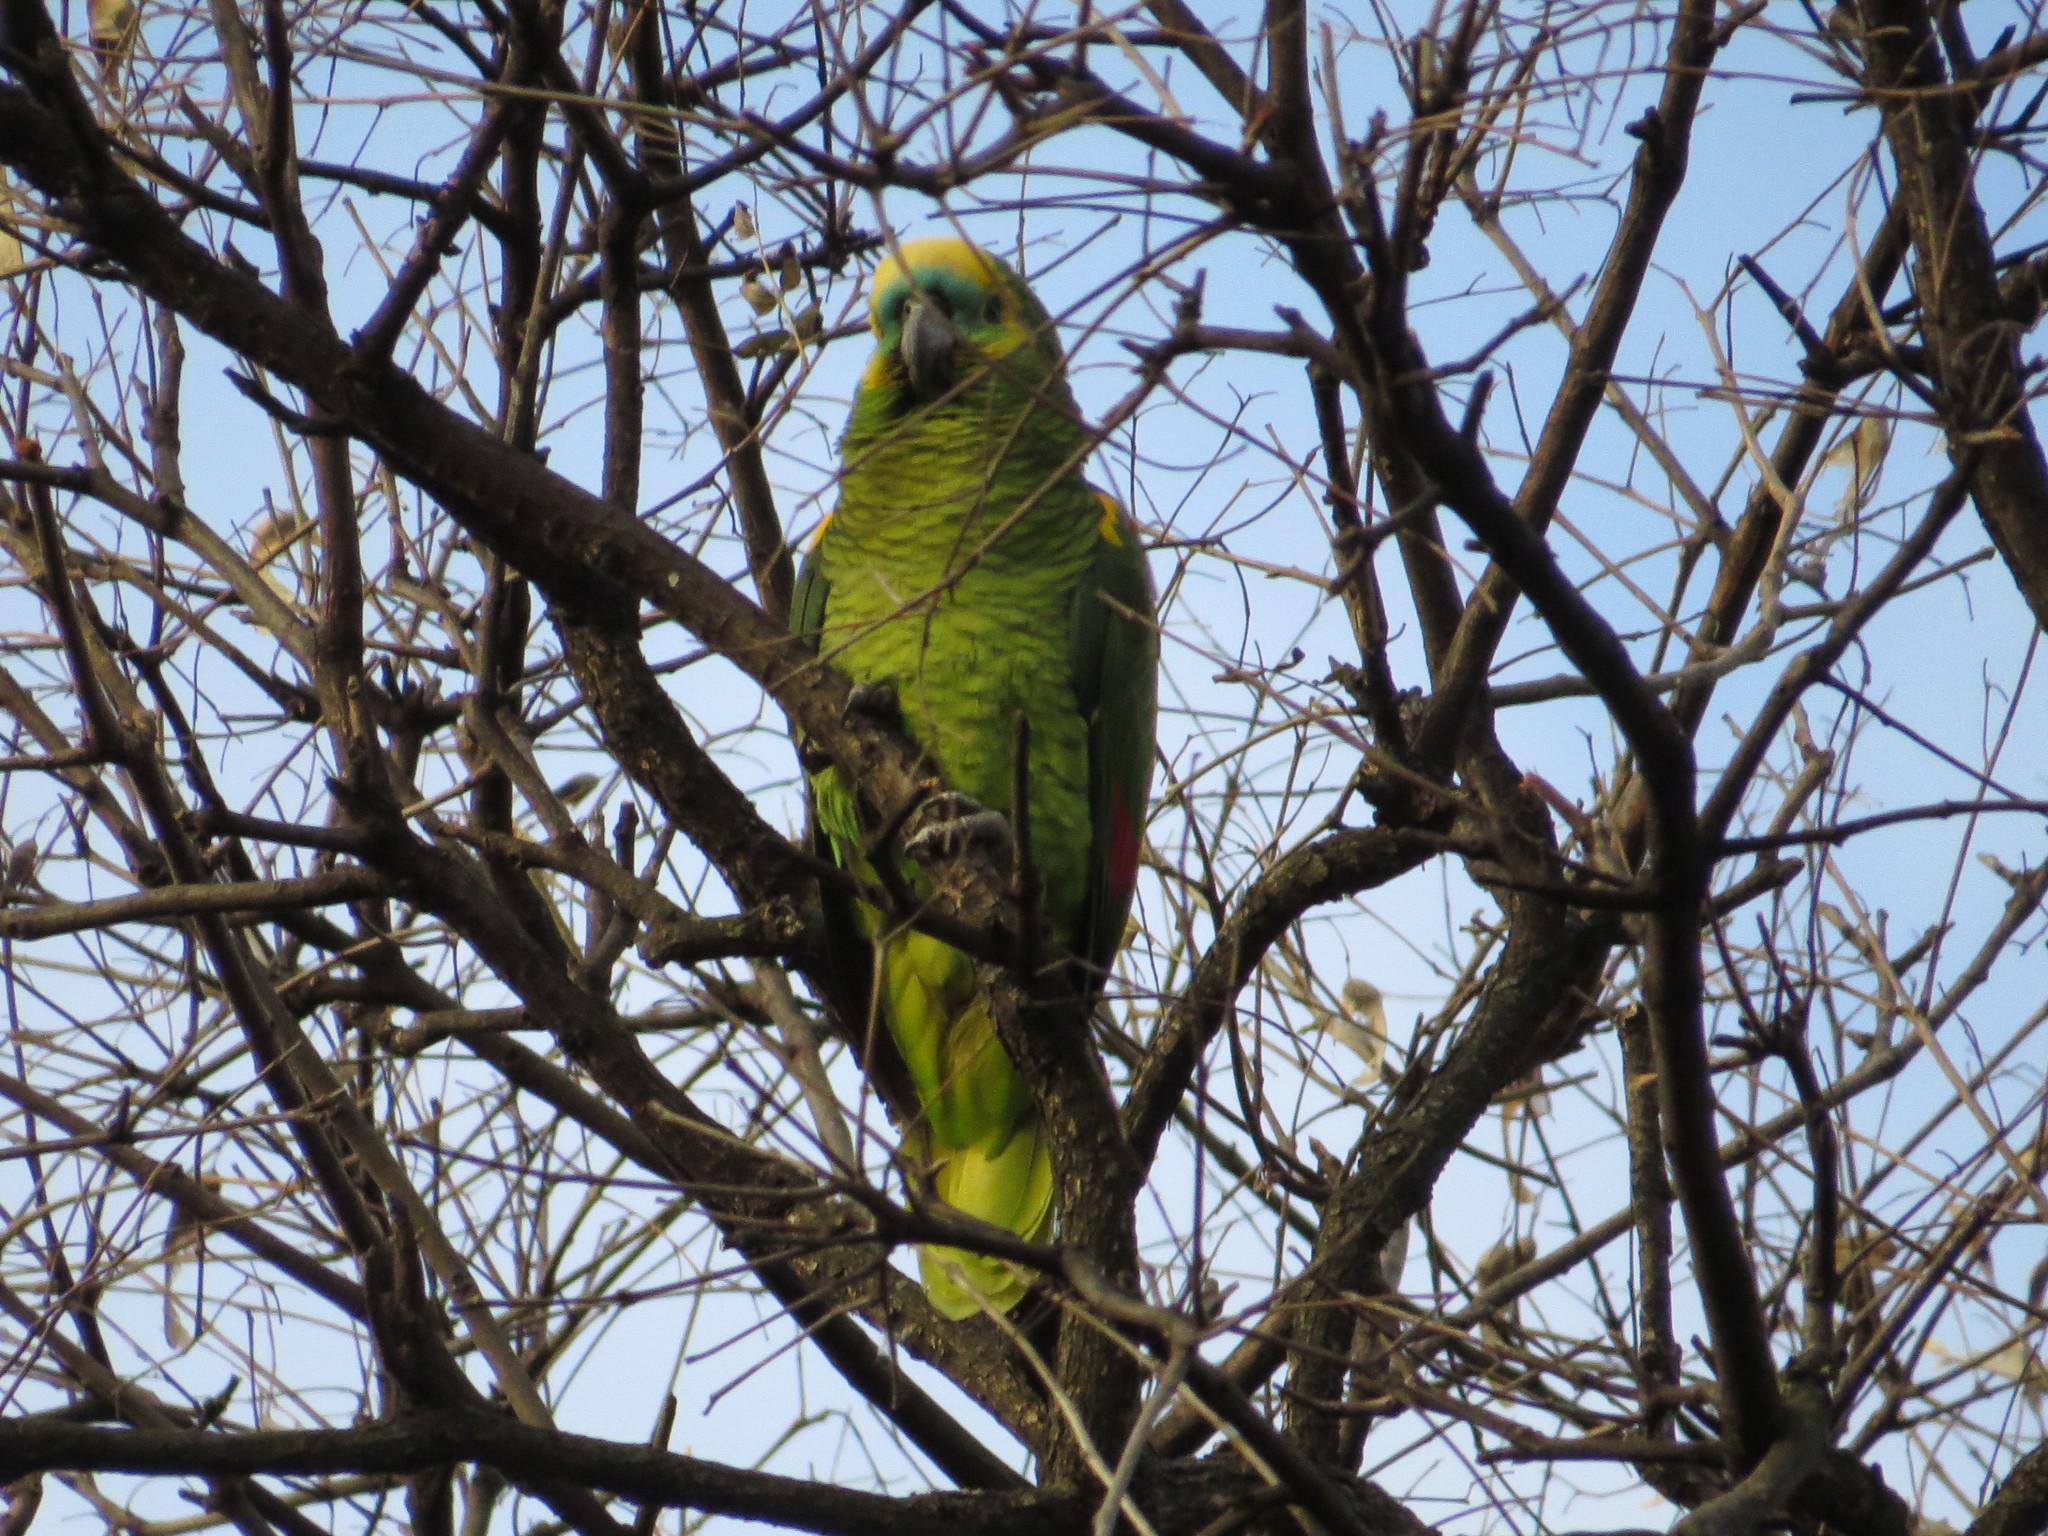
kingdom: Animalia
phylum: Chordata
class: Aves
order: Psittaciformes
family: Psittacidae
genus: Amazona
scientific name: Amazona aestiva
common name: Turquoise-fronted amazon
